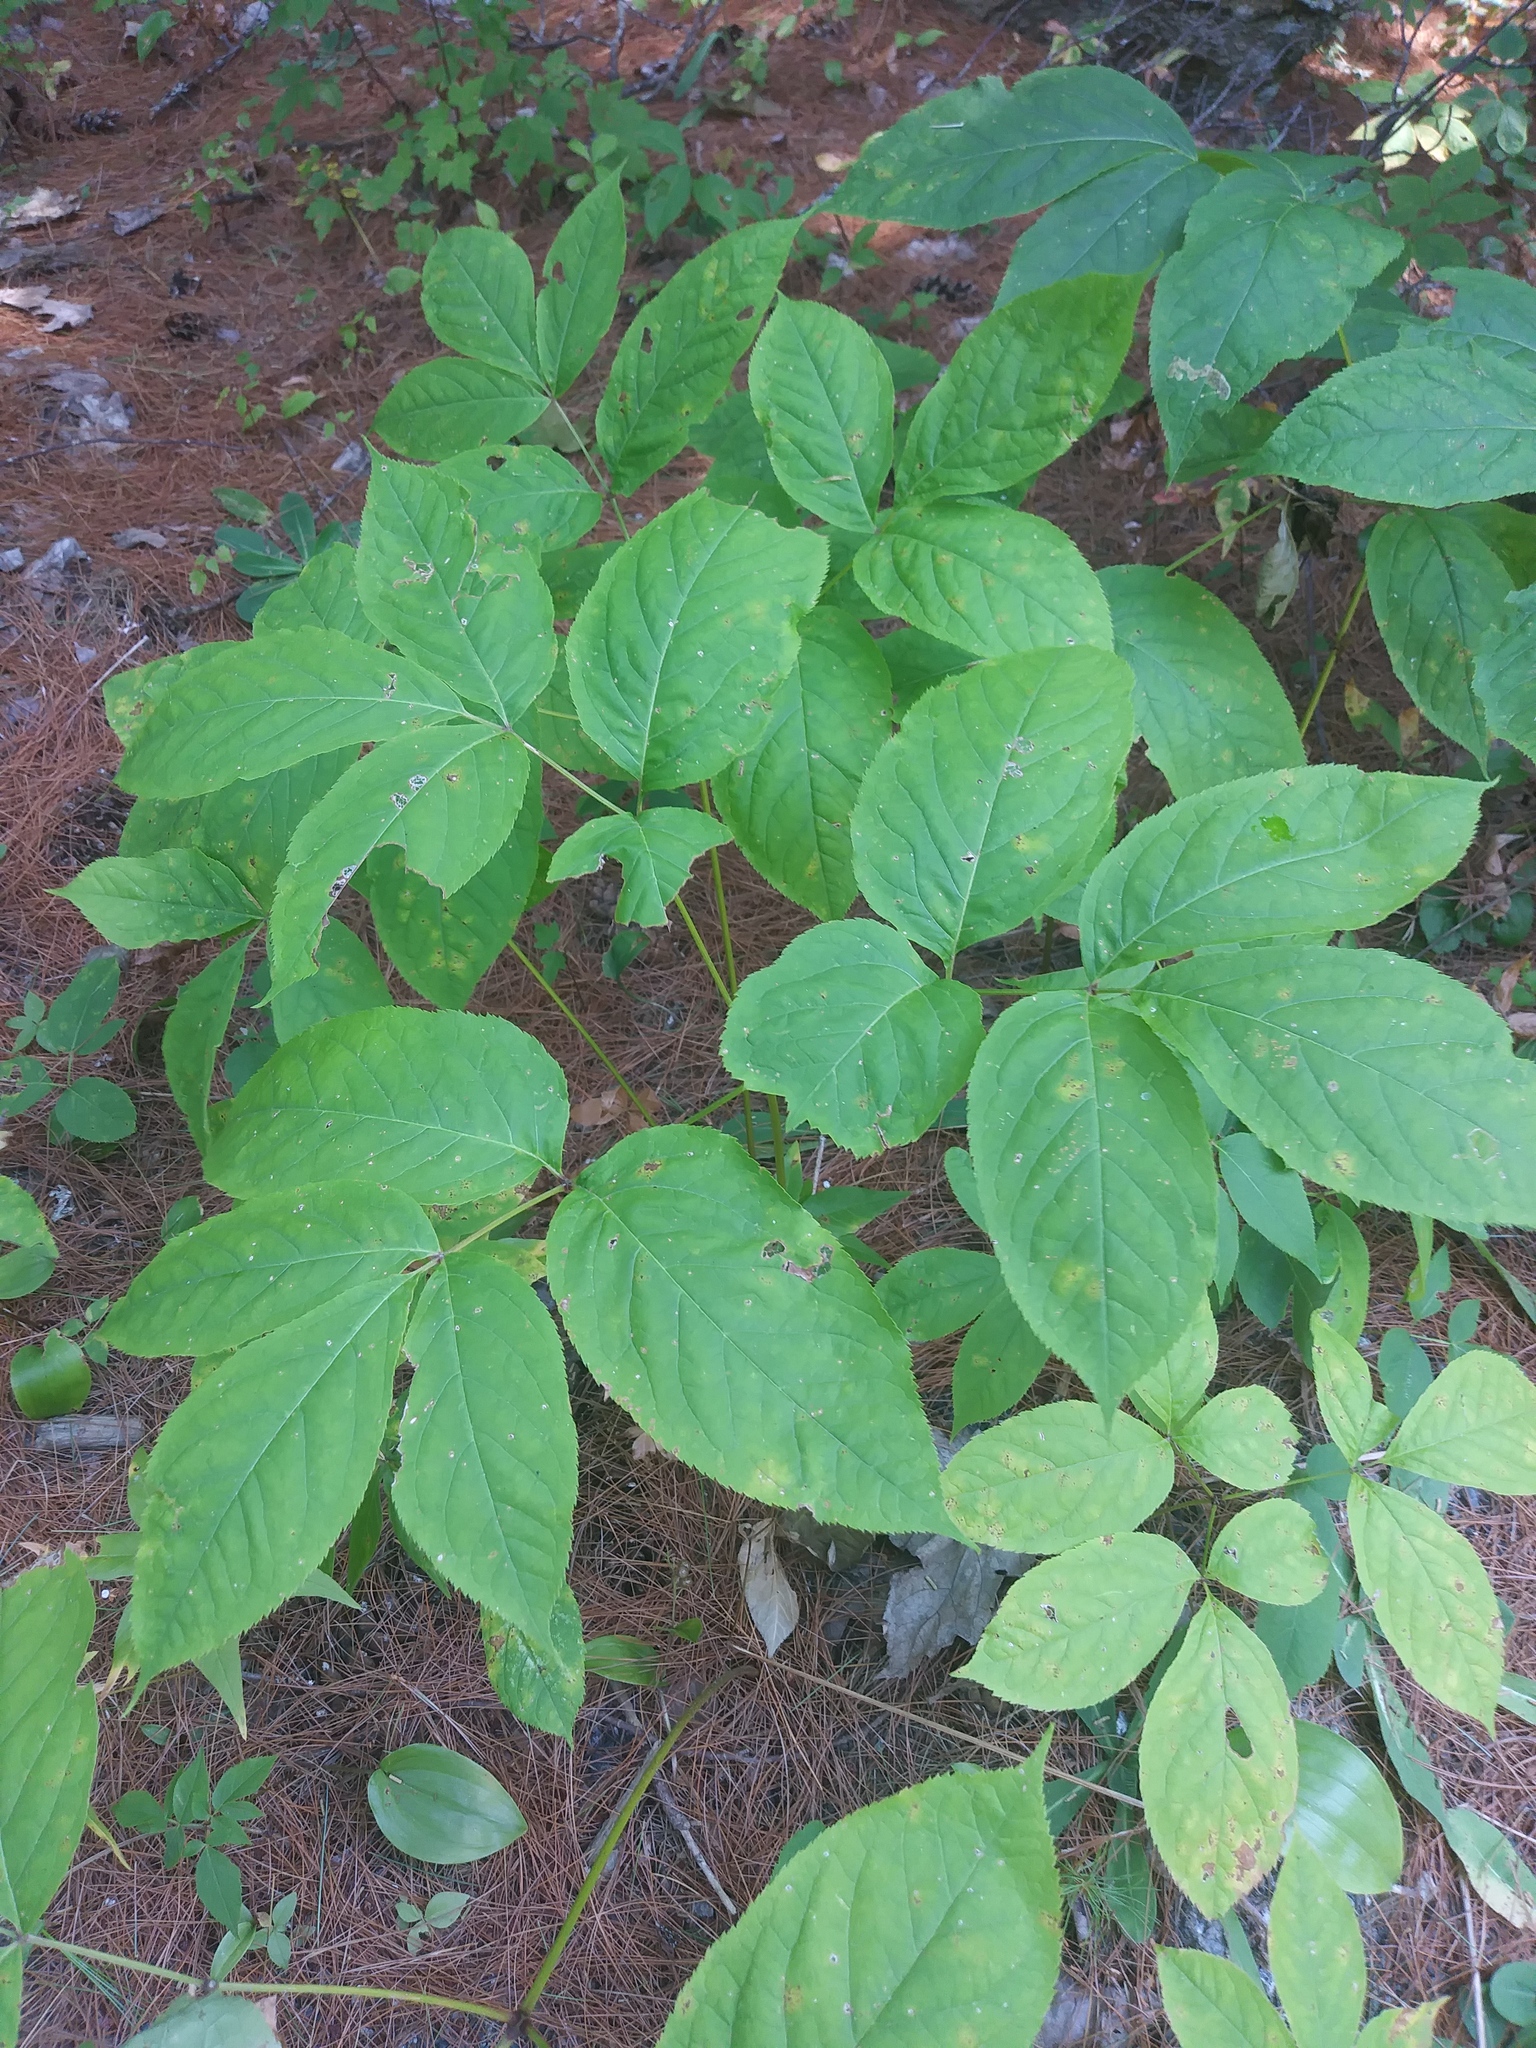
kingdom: Plantae
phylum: Tracheophyta
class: Magnoliopsida
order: Apiales
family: Araliaceae
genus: Aralia
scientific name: Aralia nudicaulis
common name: Wild sarsaparilla
